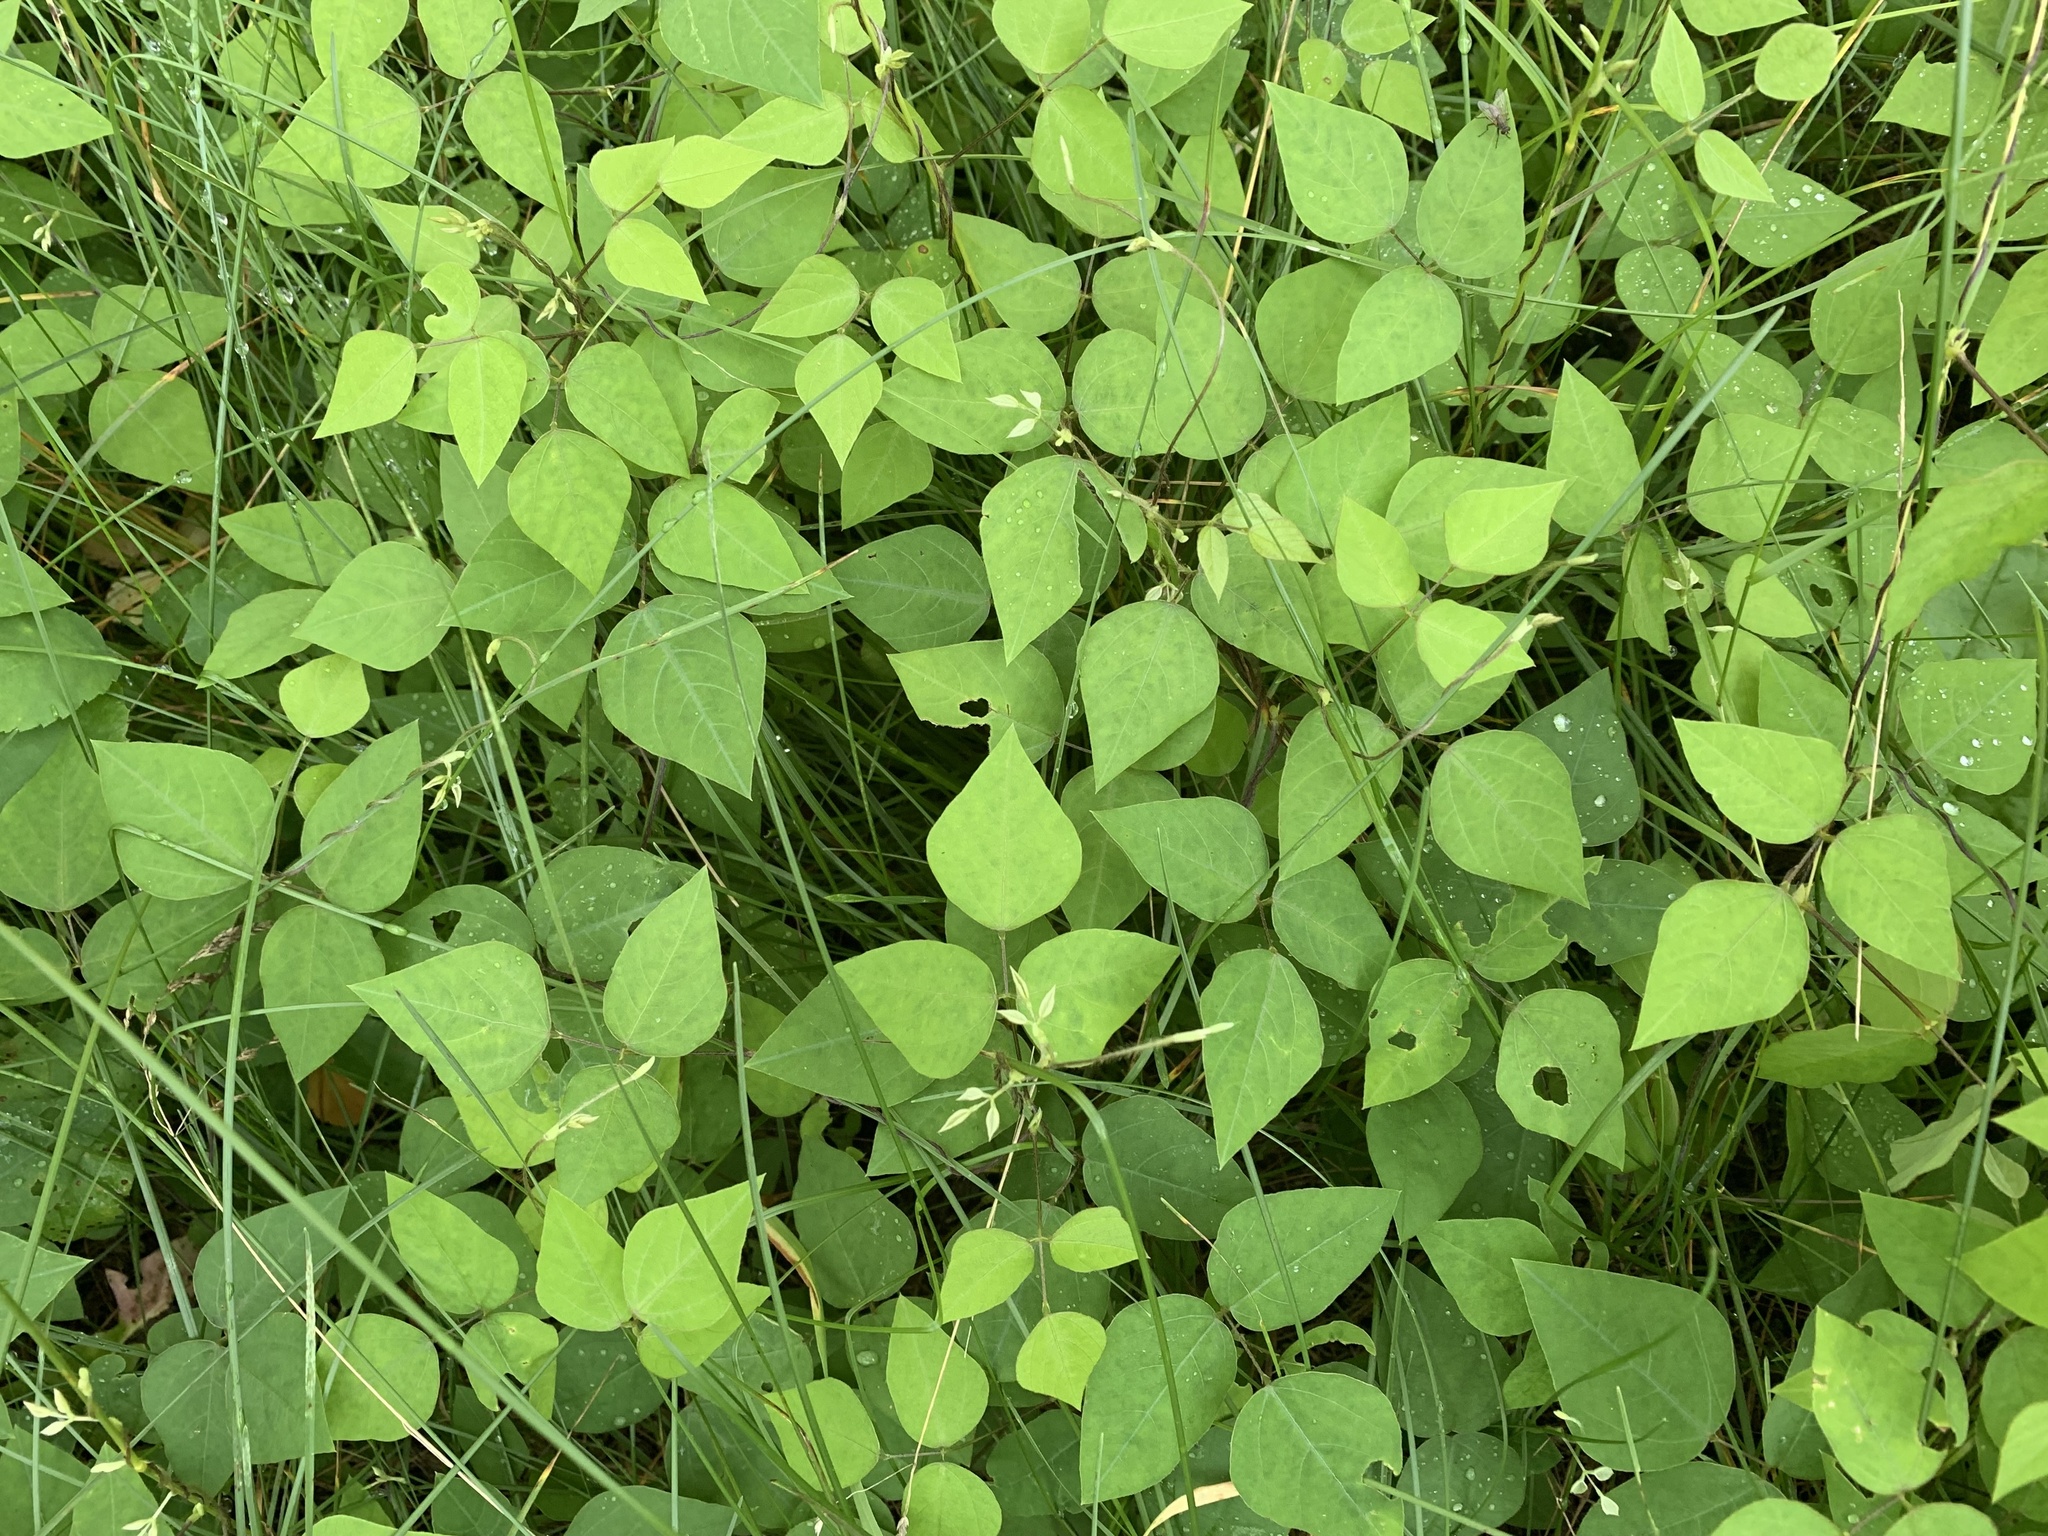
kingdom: Plantae
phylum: Tracheophyta
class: Magnoliopsida
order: Fabales
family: Fabaceae
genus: Amphicarpaea
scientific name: Amphicarpaea bracteata
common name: American hog peanut
